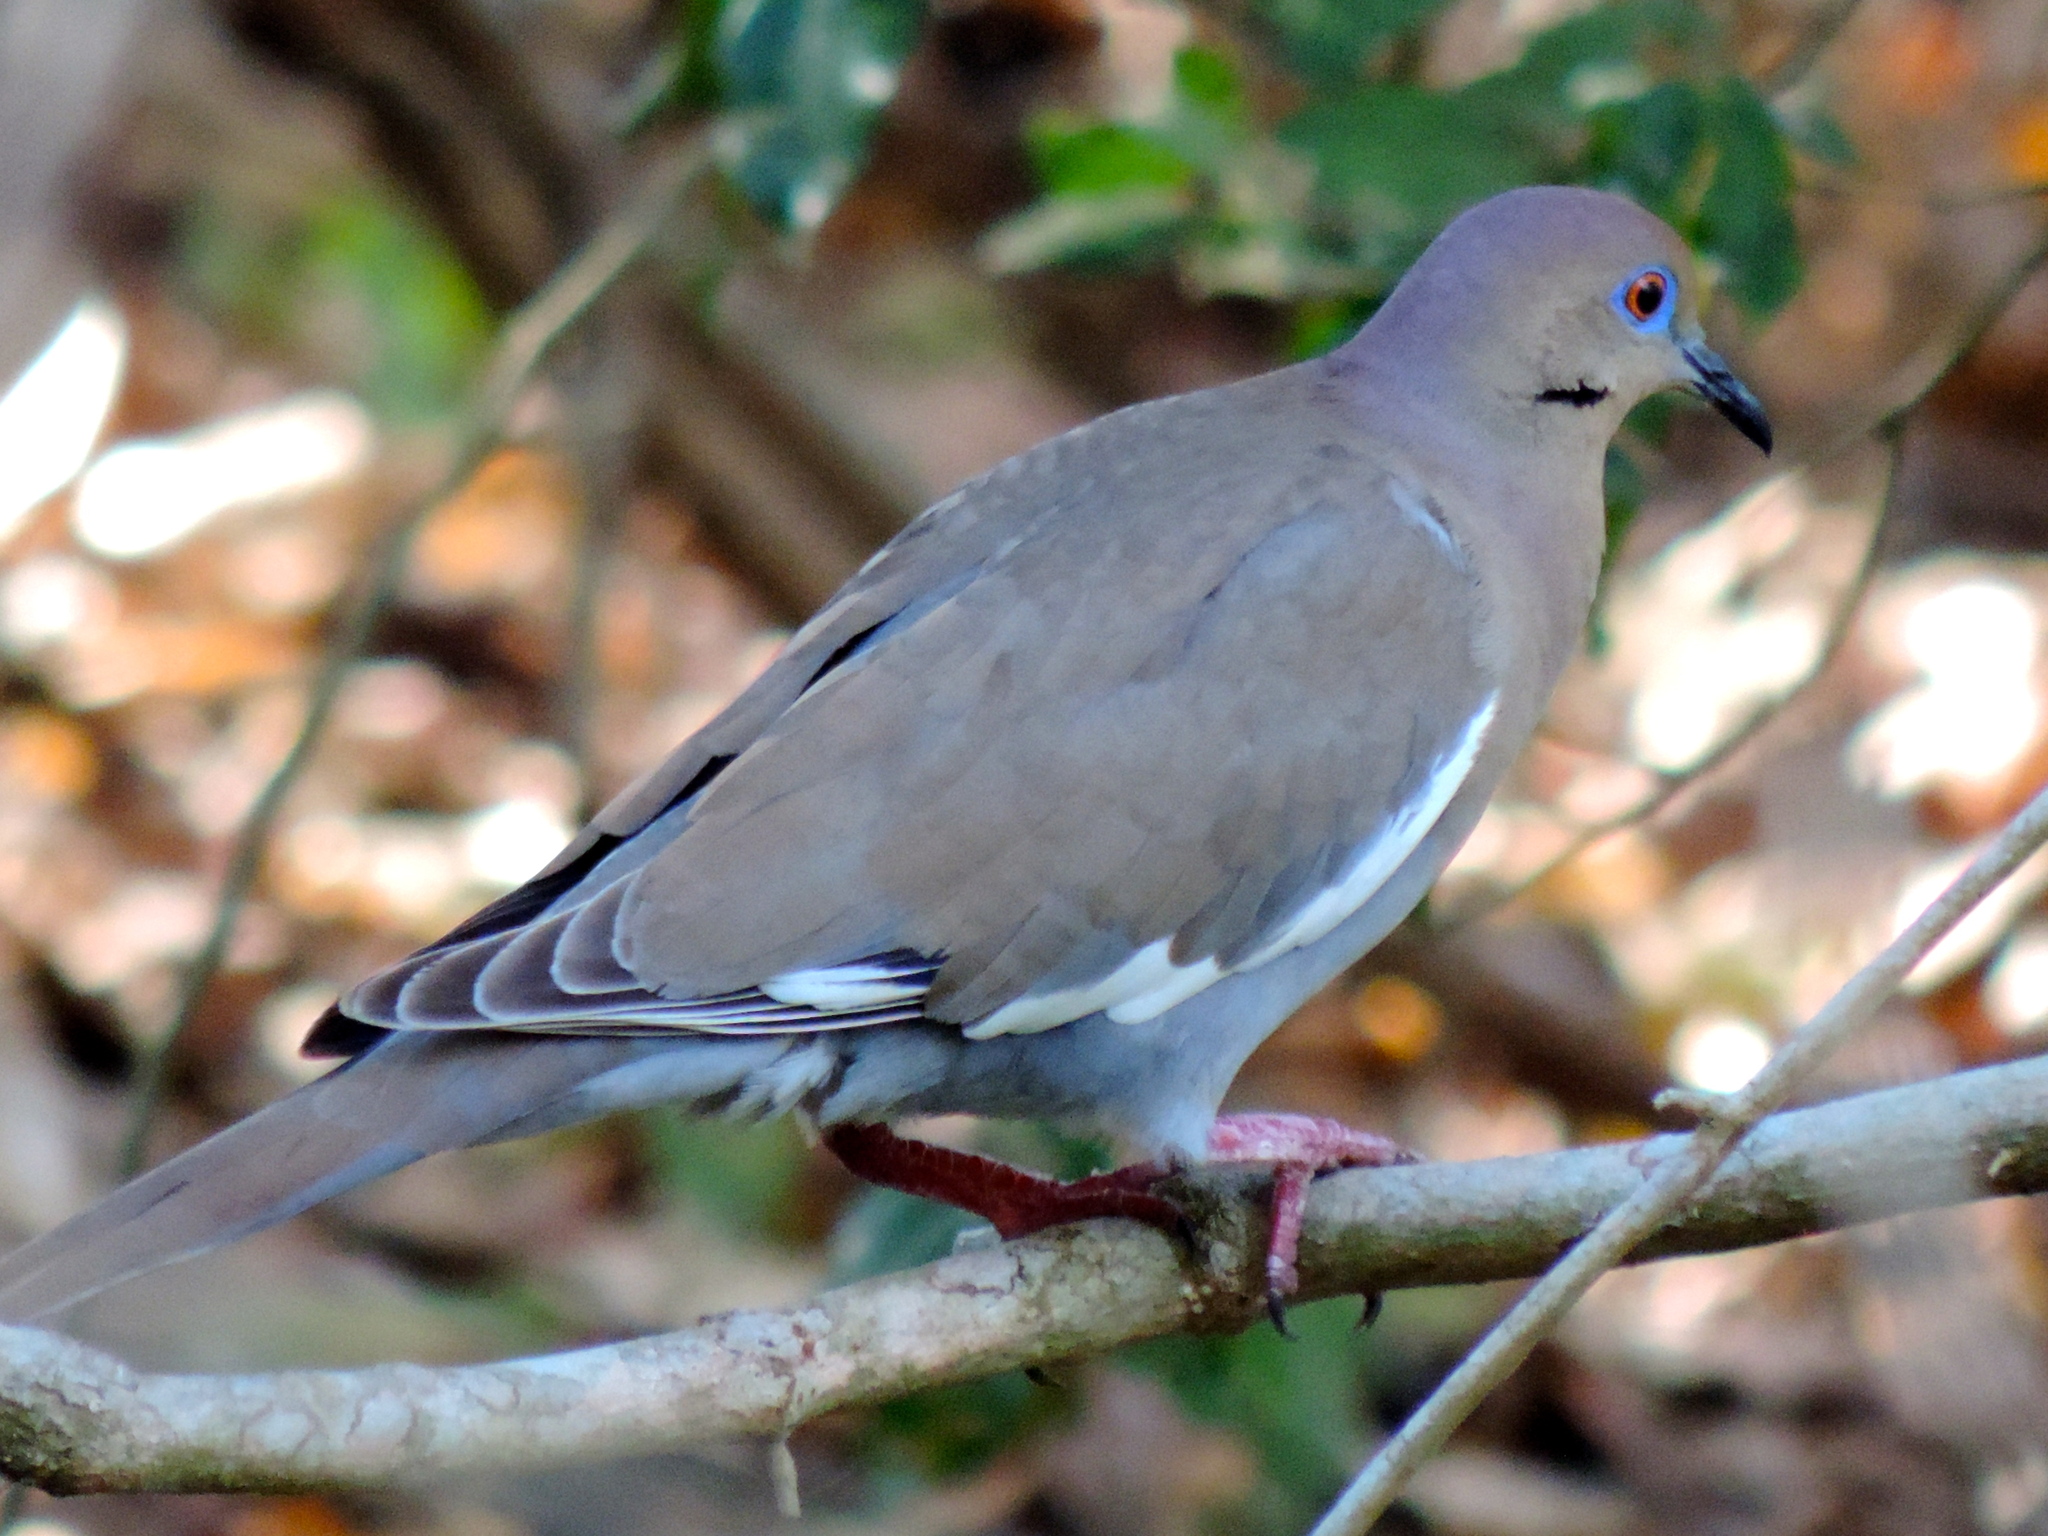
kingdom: Animalia
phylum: Chordata
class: Aves
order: Columbiformes
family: Columbidae
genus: Zenaida
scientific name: Zenaida asiatica
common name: White-winged dove
